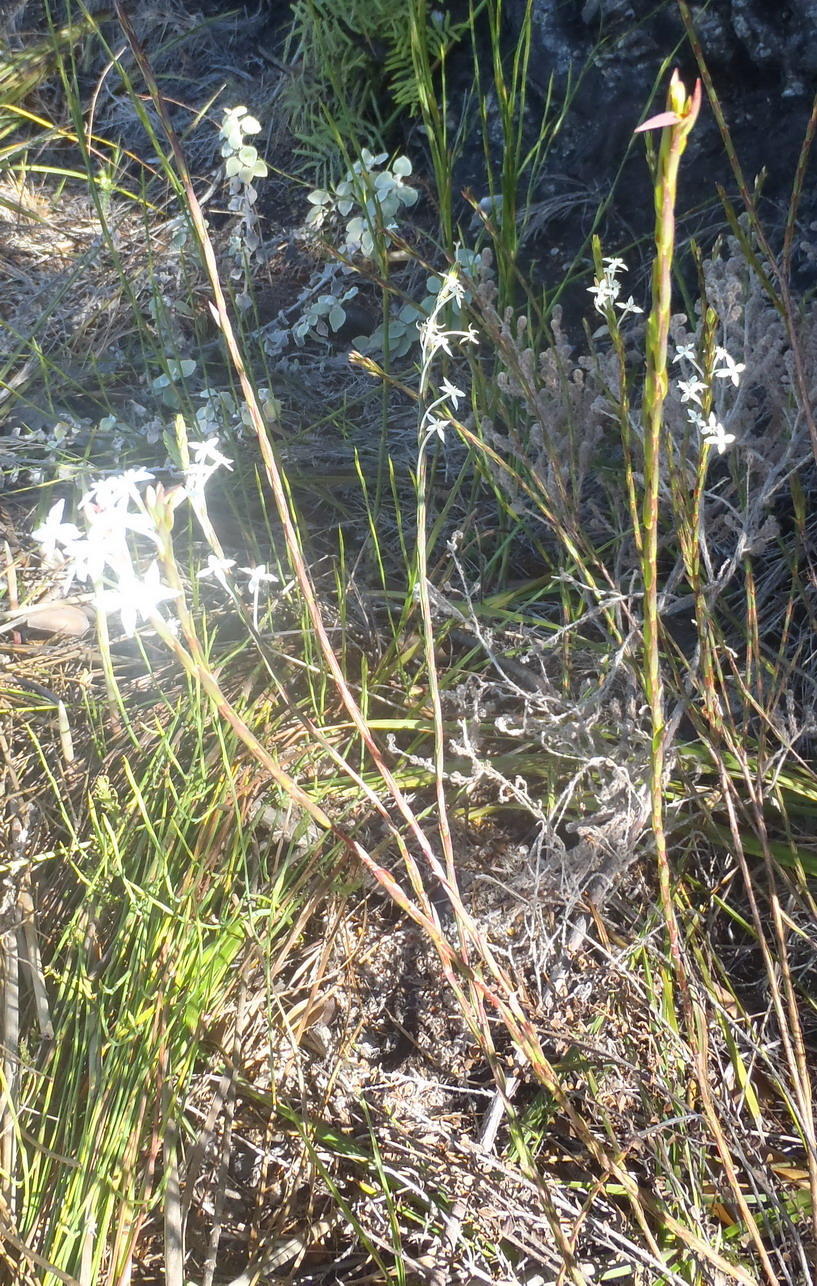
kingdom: Plantae
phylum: Tracheophyta
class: Magnoliopsida
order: Malvales
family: Thymelaeaceae
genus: Struthiola
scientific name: Struthiola myrsinites
